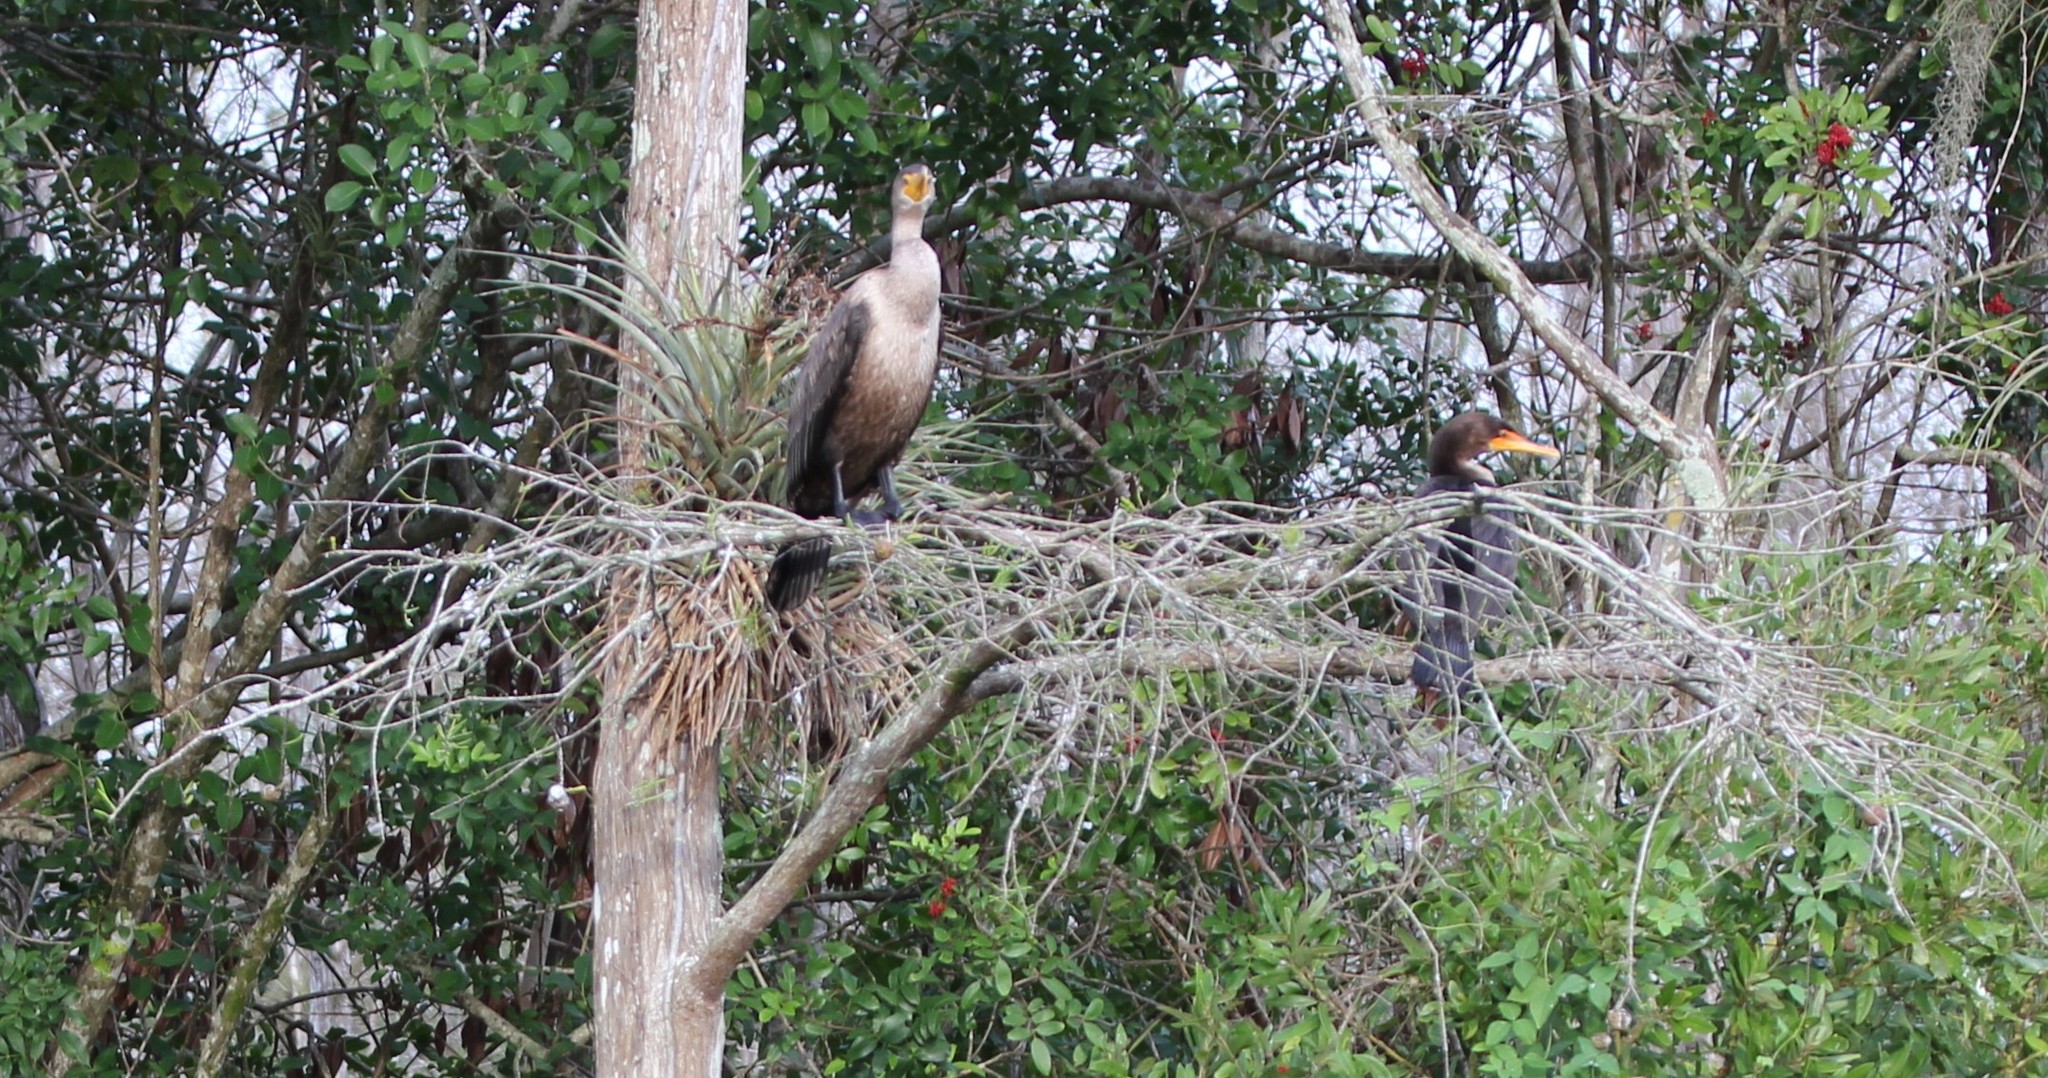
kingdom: Animalia
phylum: Chordata
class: Aves
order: Suliformes
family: Phalacrocoracidae
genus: Phalacrocorax
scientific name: Phalacrocorax auritus
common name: Double-crested cormorant
